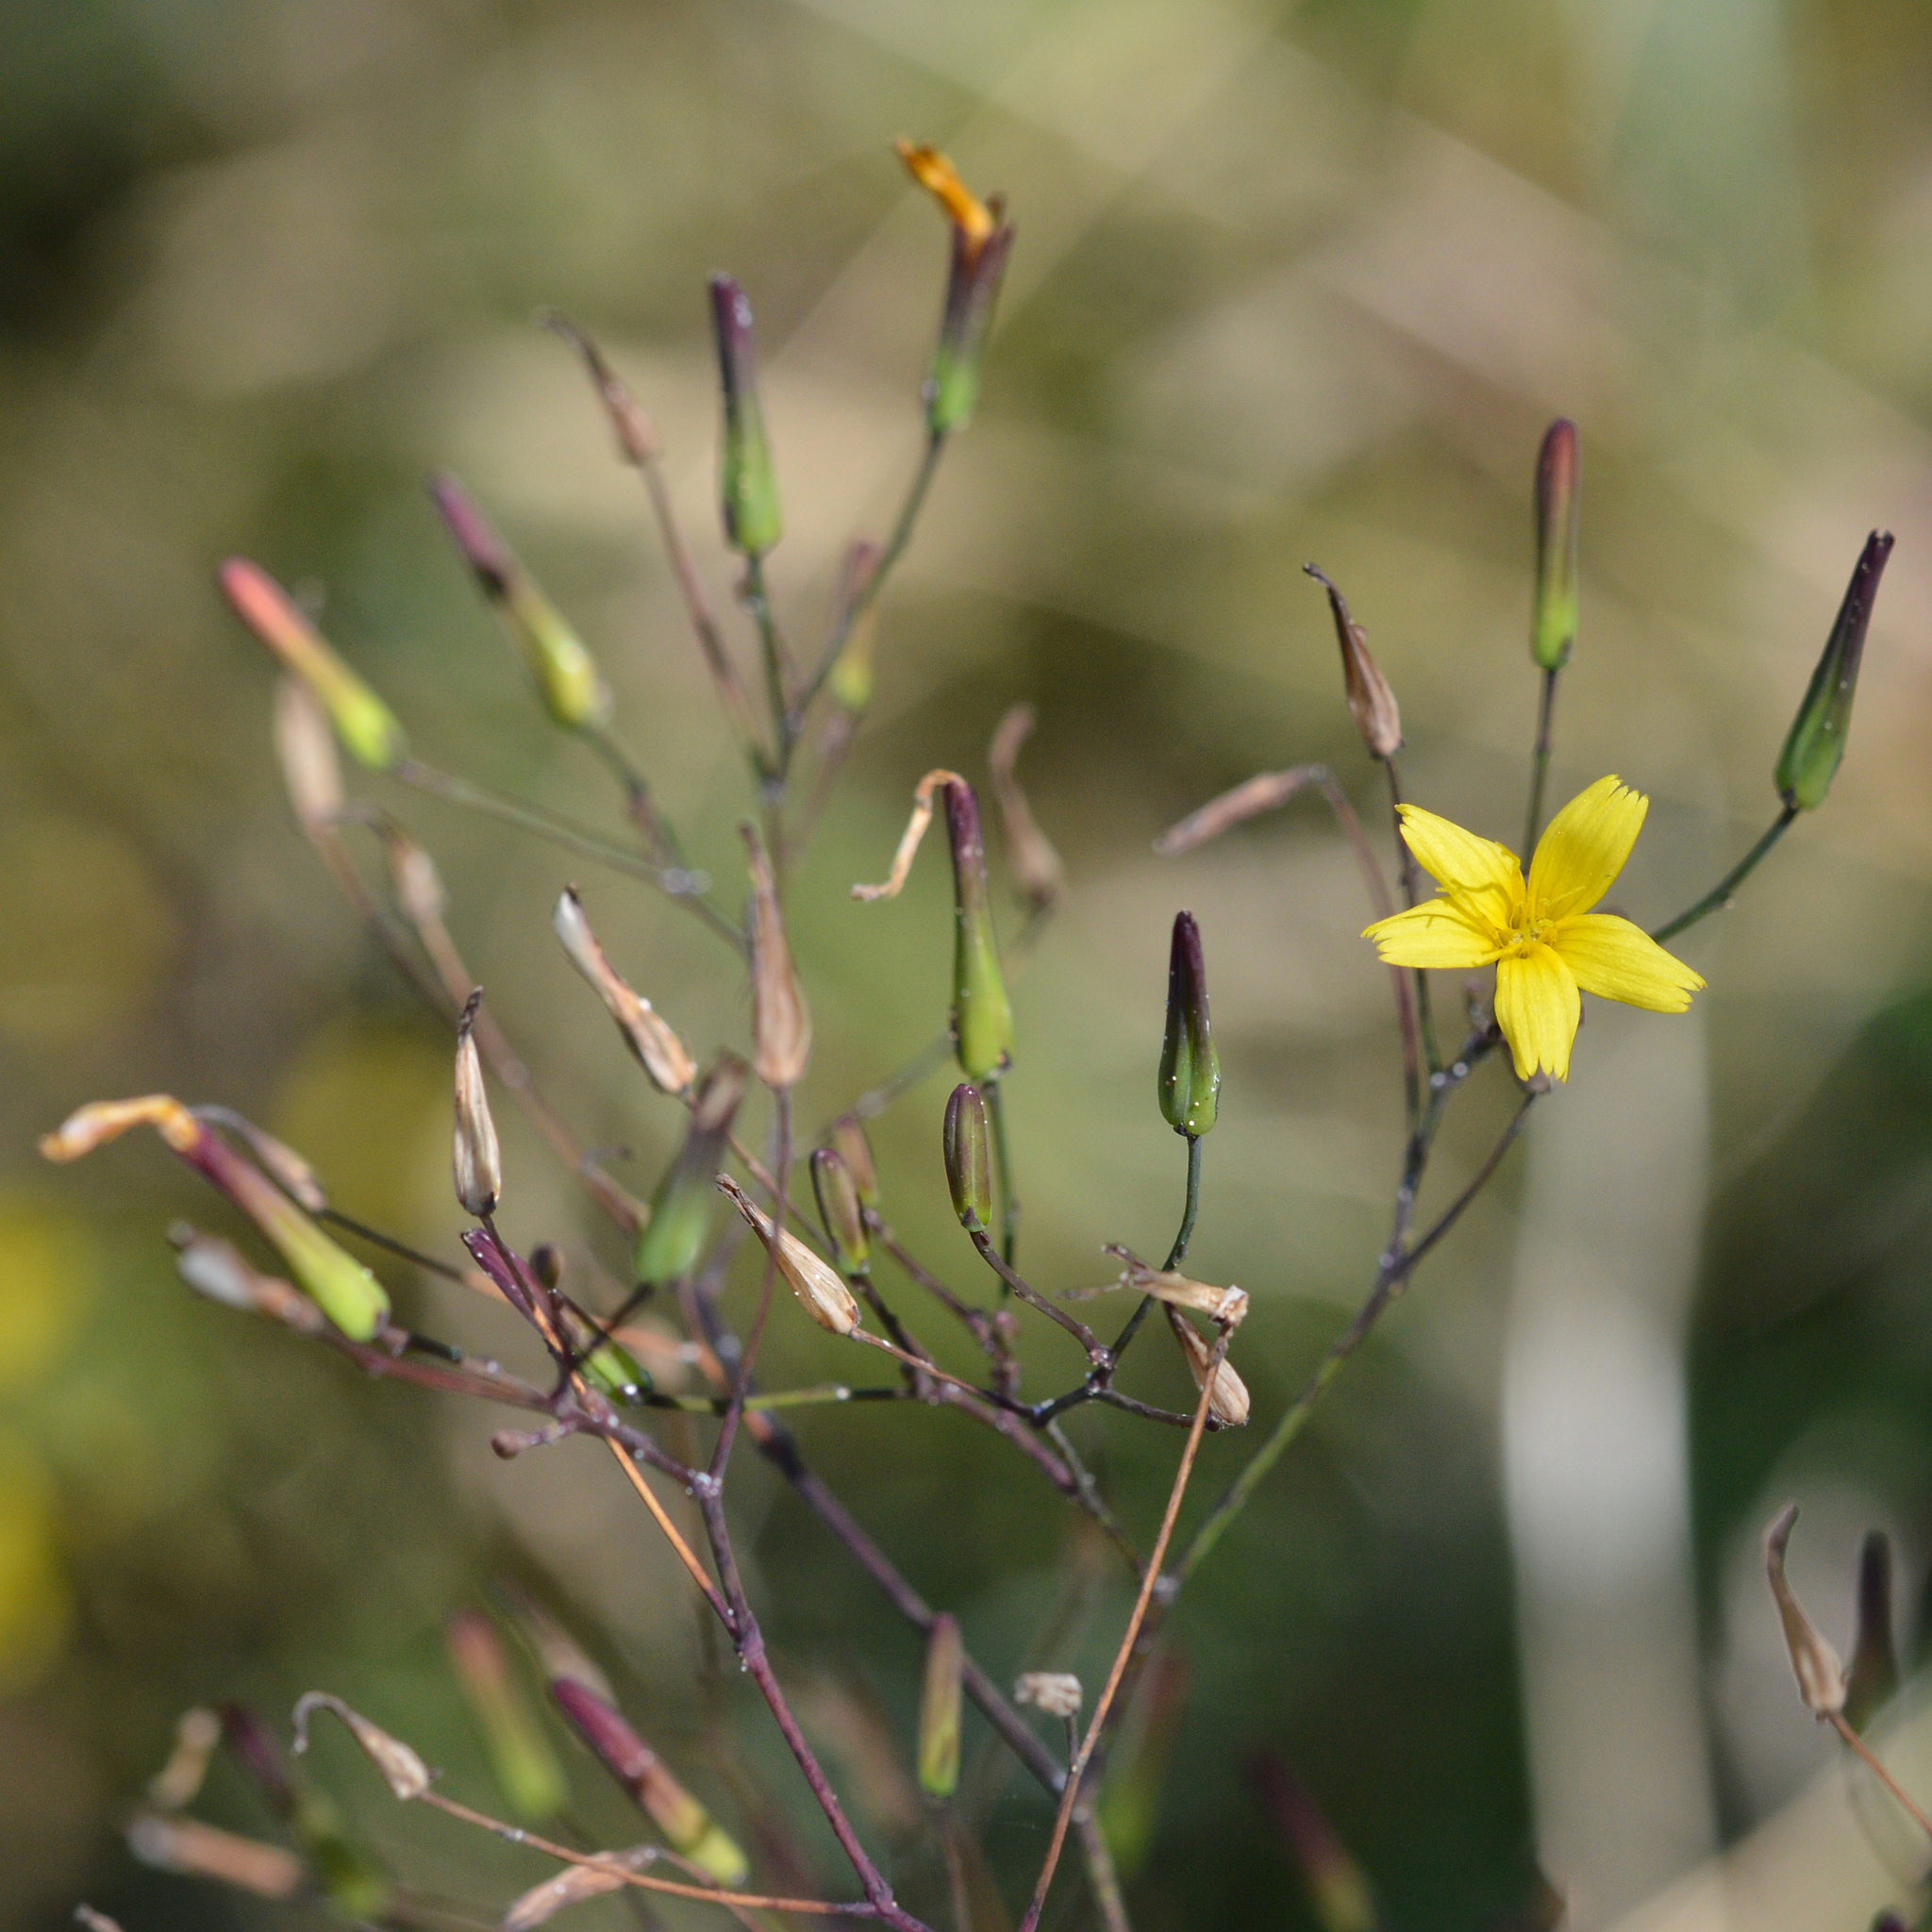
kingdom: Plantae
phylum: Tracheophyta
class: Magnoliopsida
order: Asterales
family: Asteraceae
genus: Mycelis
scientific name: Mycelis muralis
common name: Wall lettuce
